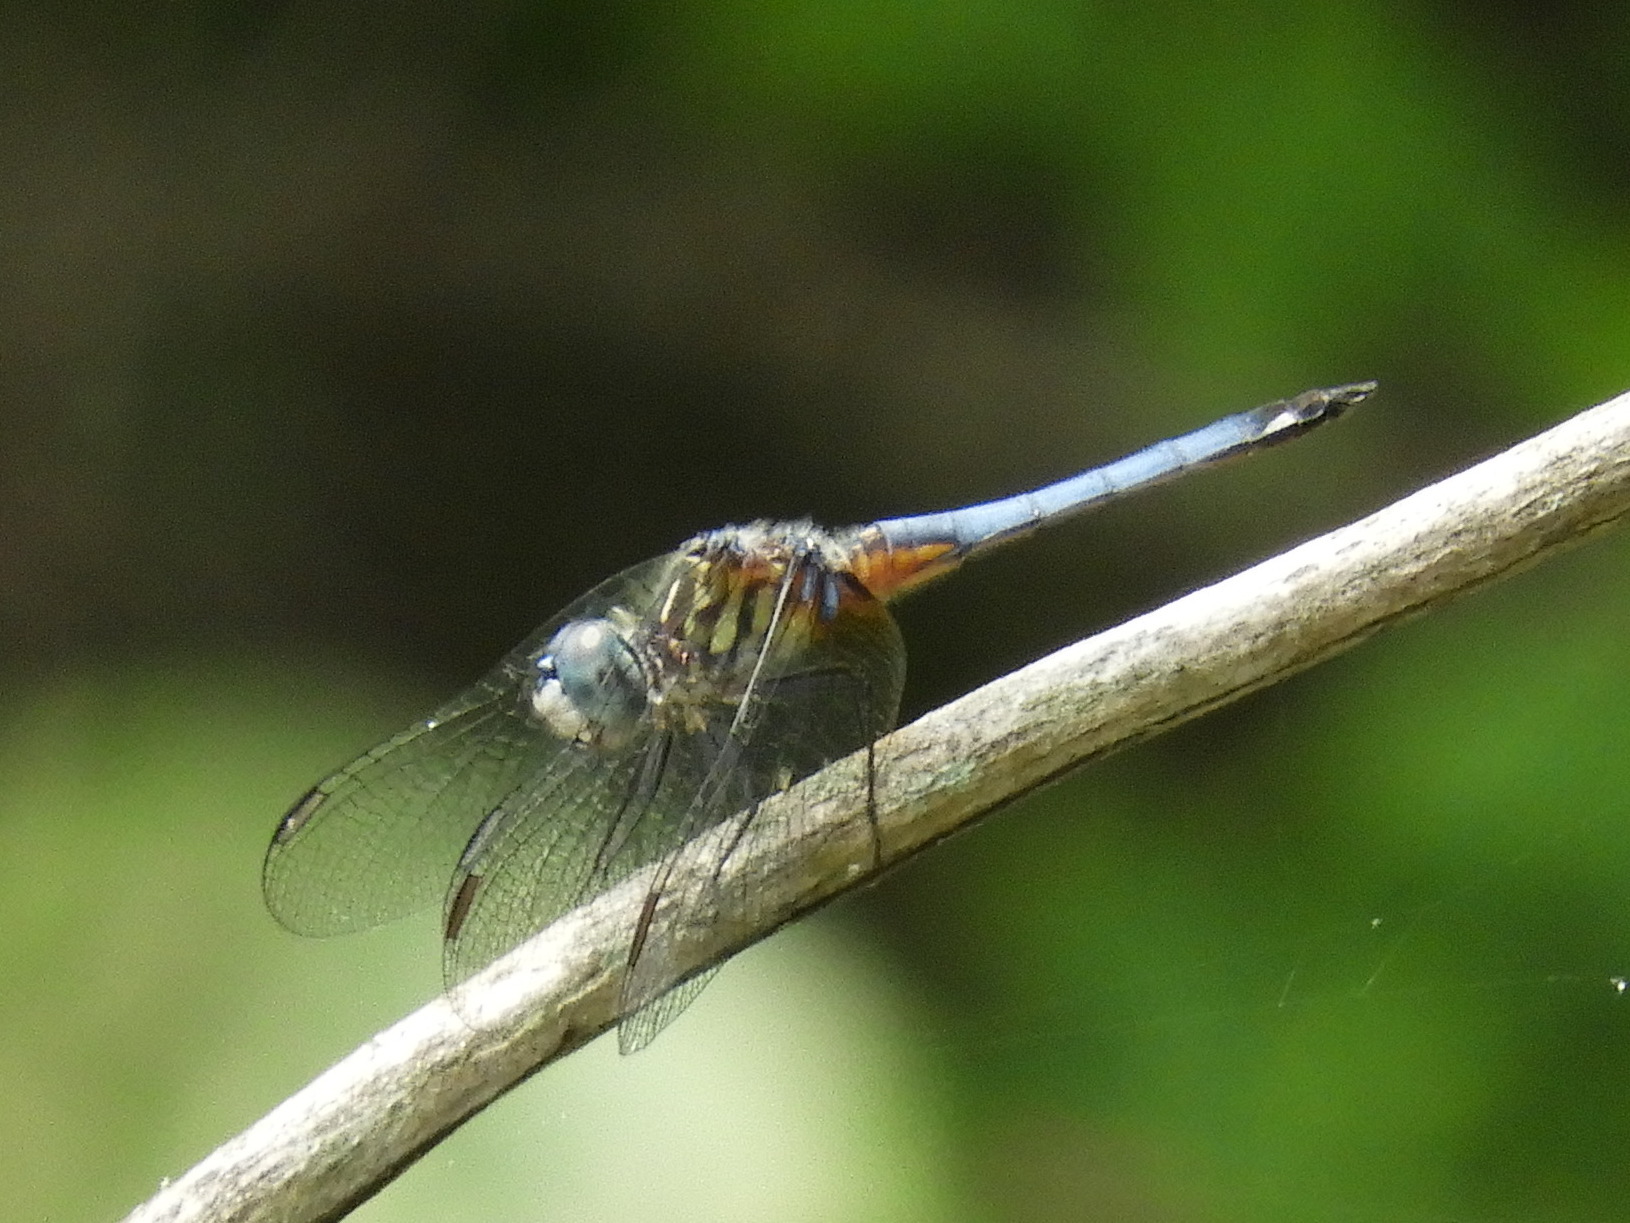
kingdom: Animalia
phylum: Arthropoda
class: Insecta
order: Odonata
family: Libellulidae
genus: Pachydiplax
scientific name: Pachydiplax longipennis
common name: Blue dasher
